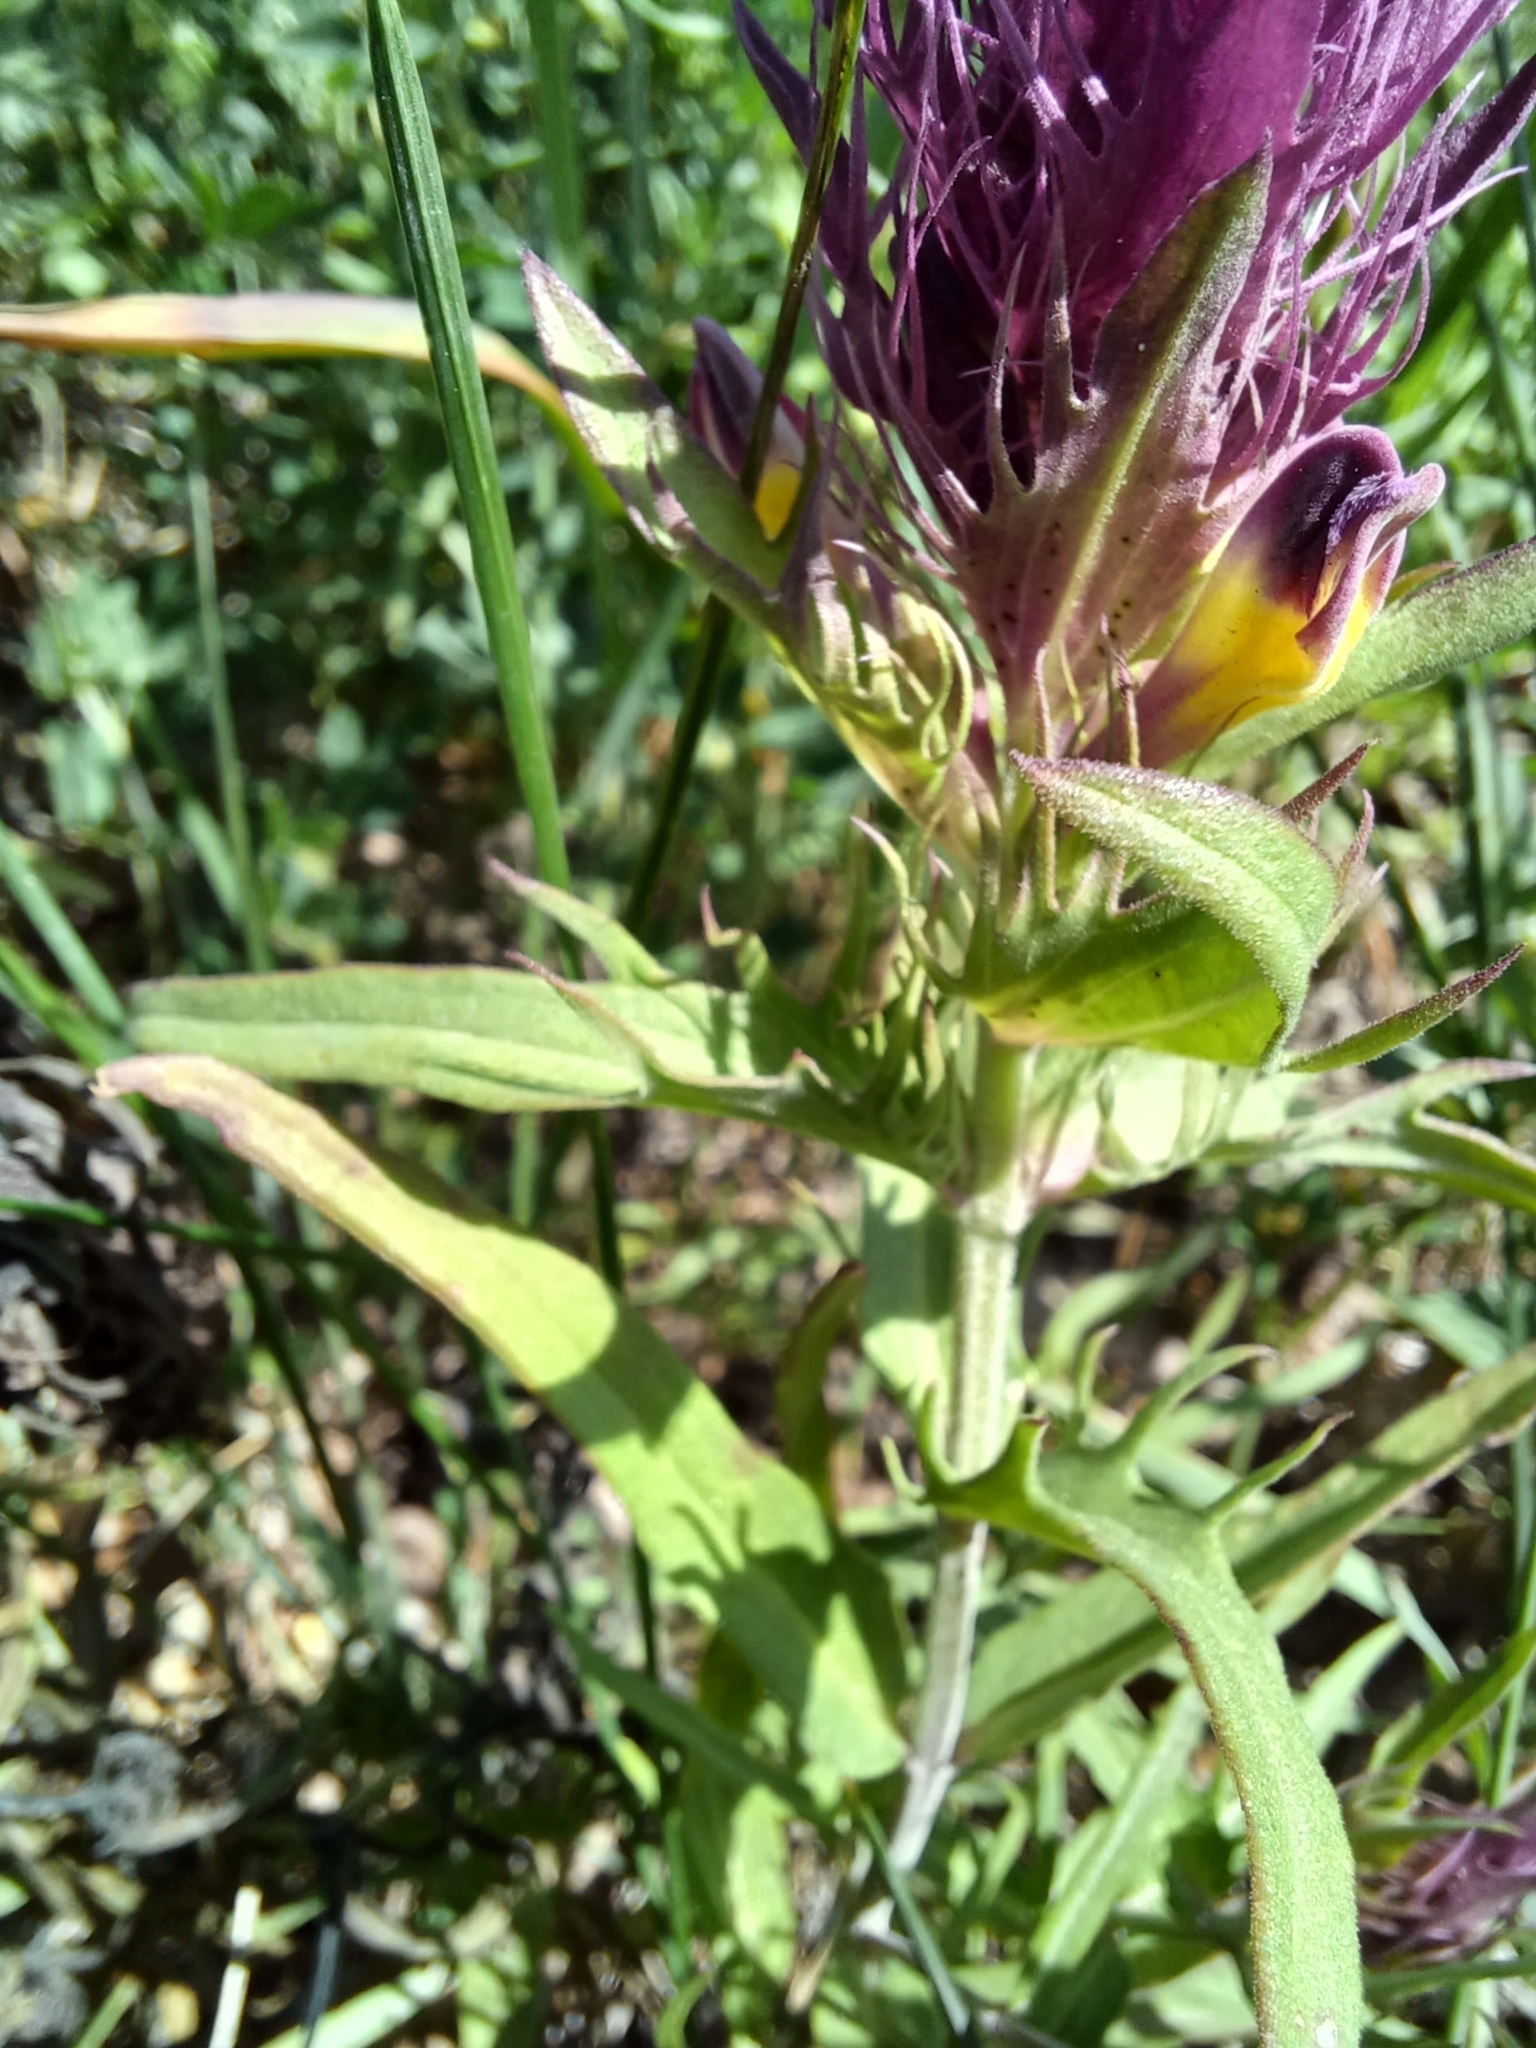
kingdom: Plantae
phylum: Tracheophyta
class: Magnoliopsida
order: Lamiales
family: Orobanchaceae
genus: Melampyrum
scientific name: Melampyrum arvense
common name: Field cow-wheat
